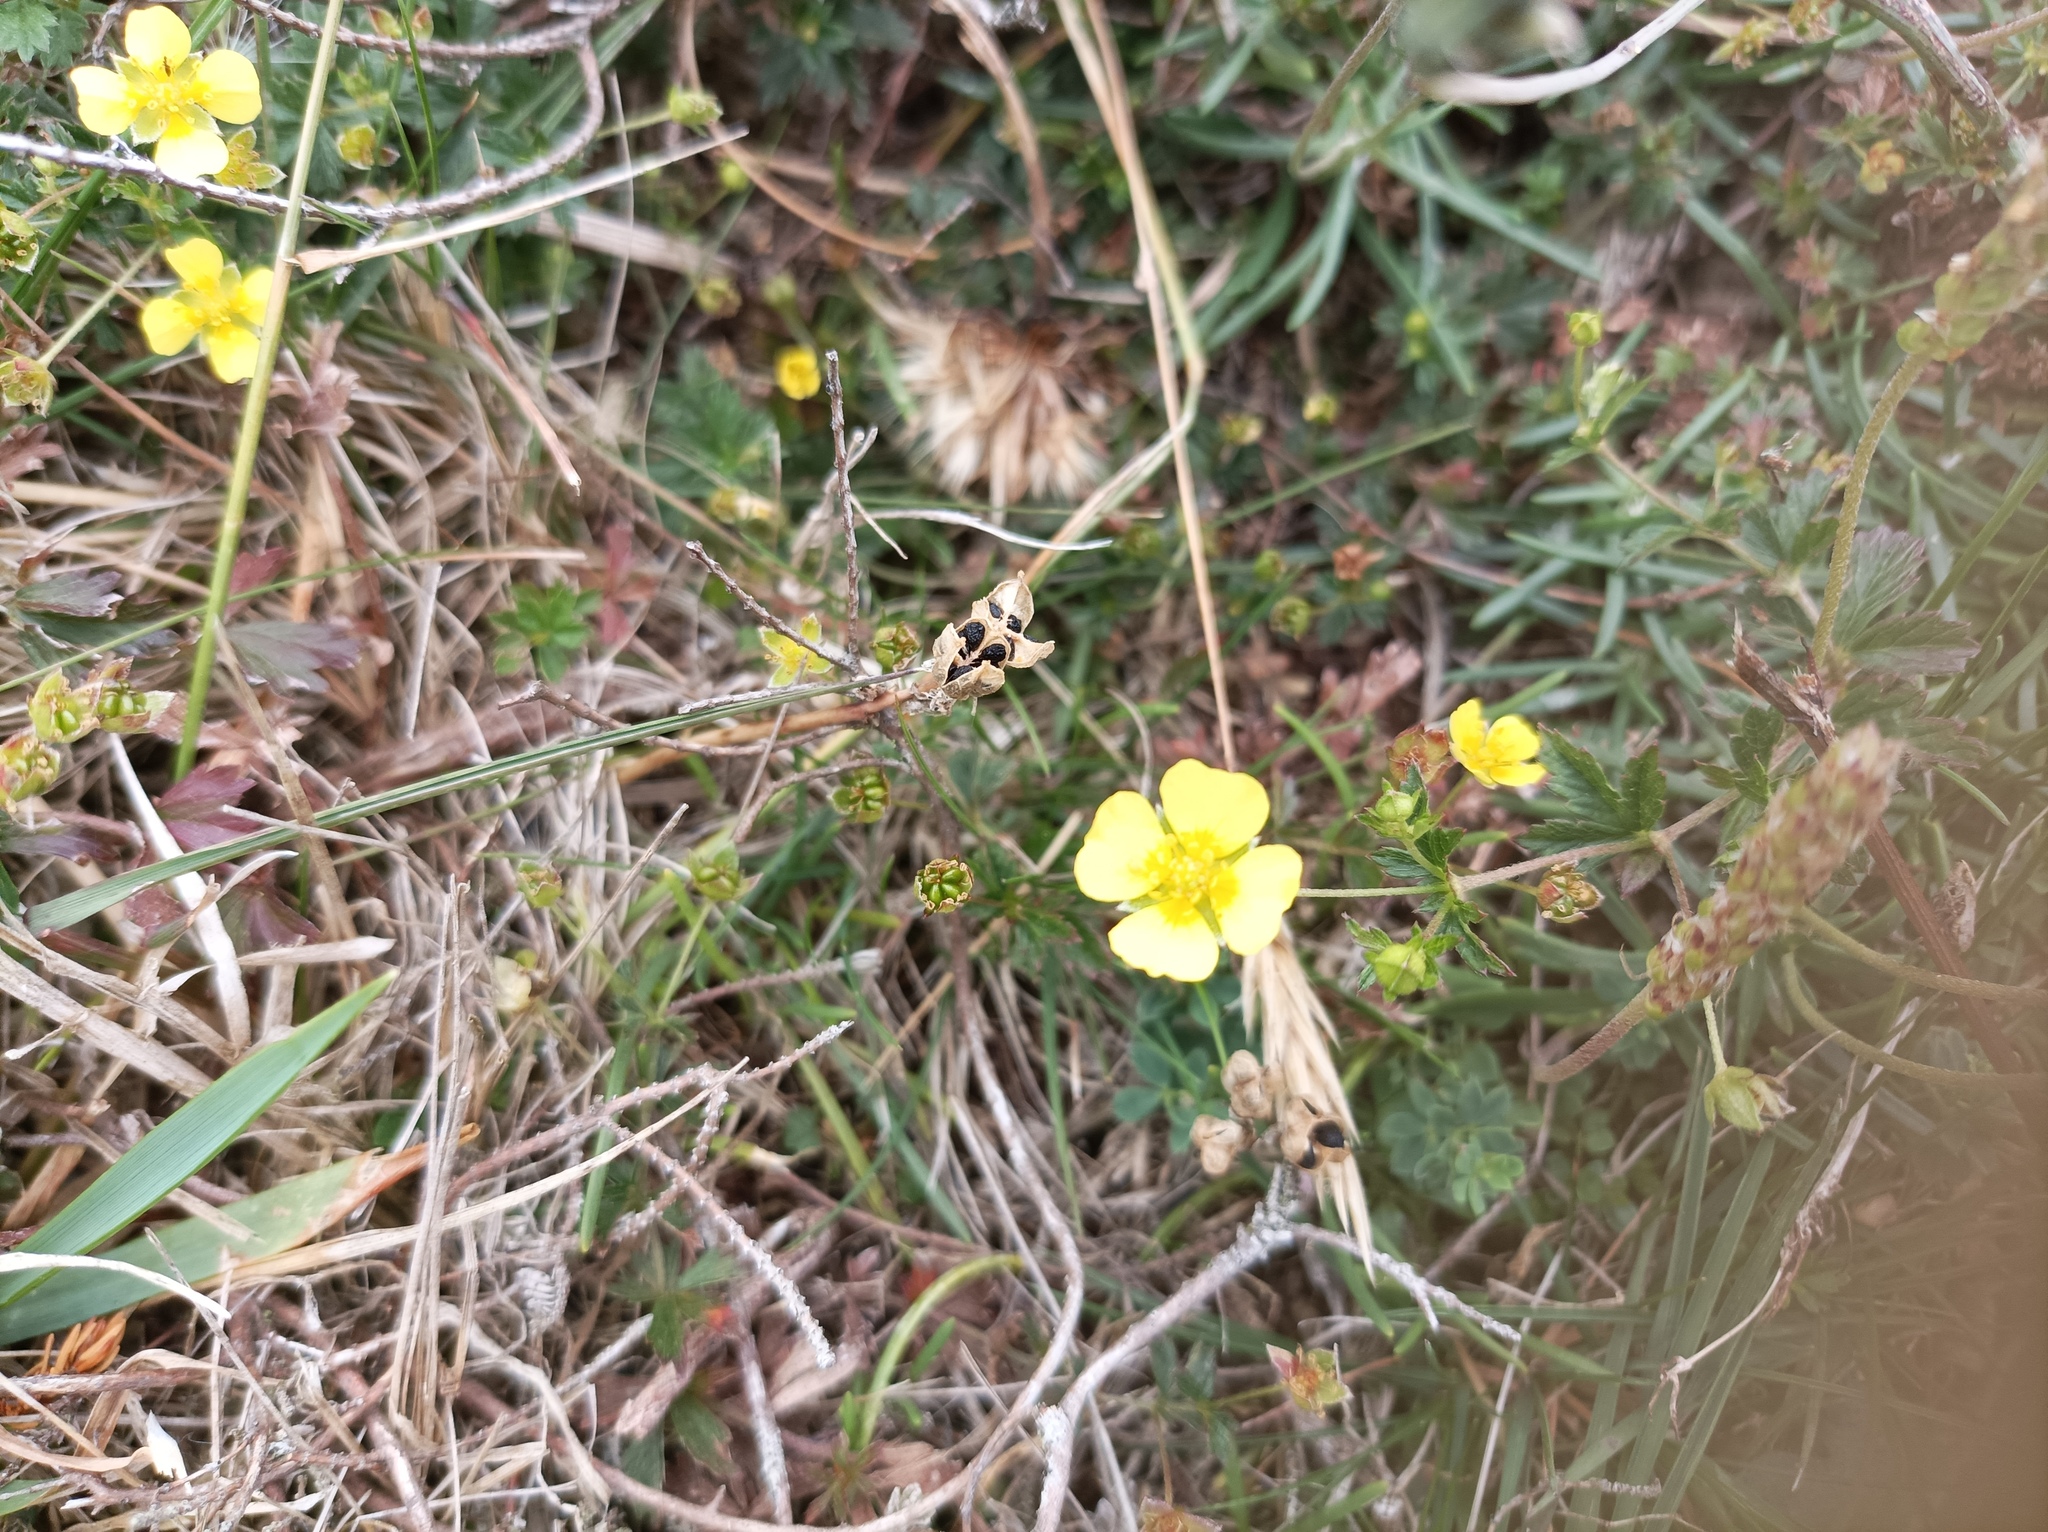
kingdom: Plantae
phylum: Tracheophyta
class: Magnoliopsida
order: Rosales
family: Rosaceae
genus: Potentilla
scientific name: Potentilla erecta
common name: Tormentil
